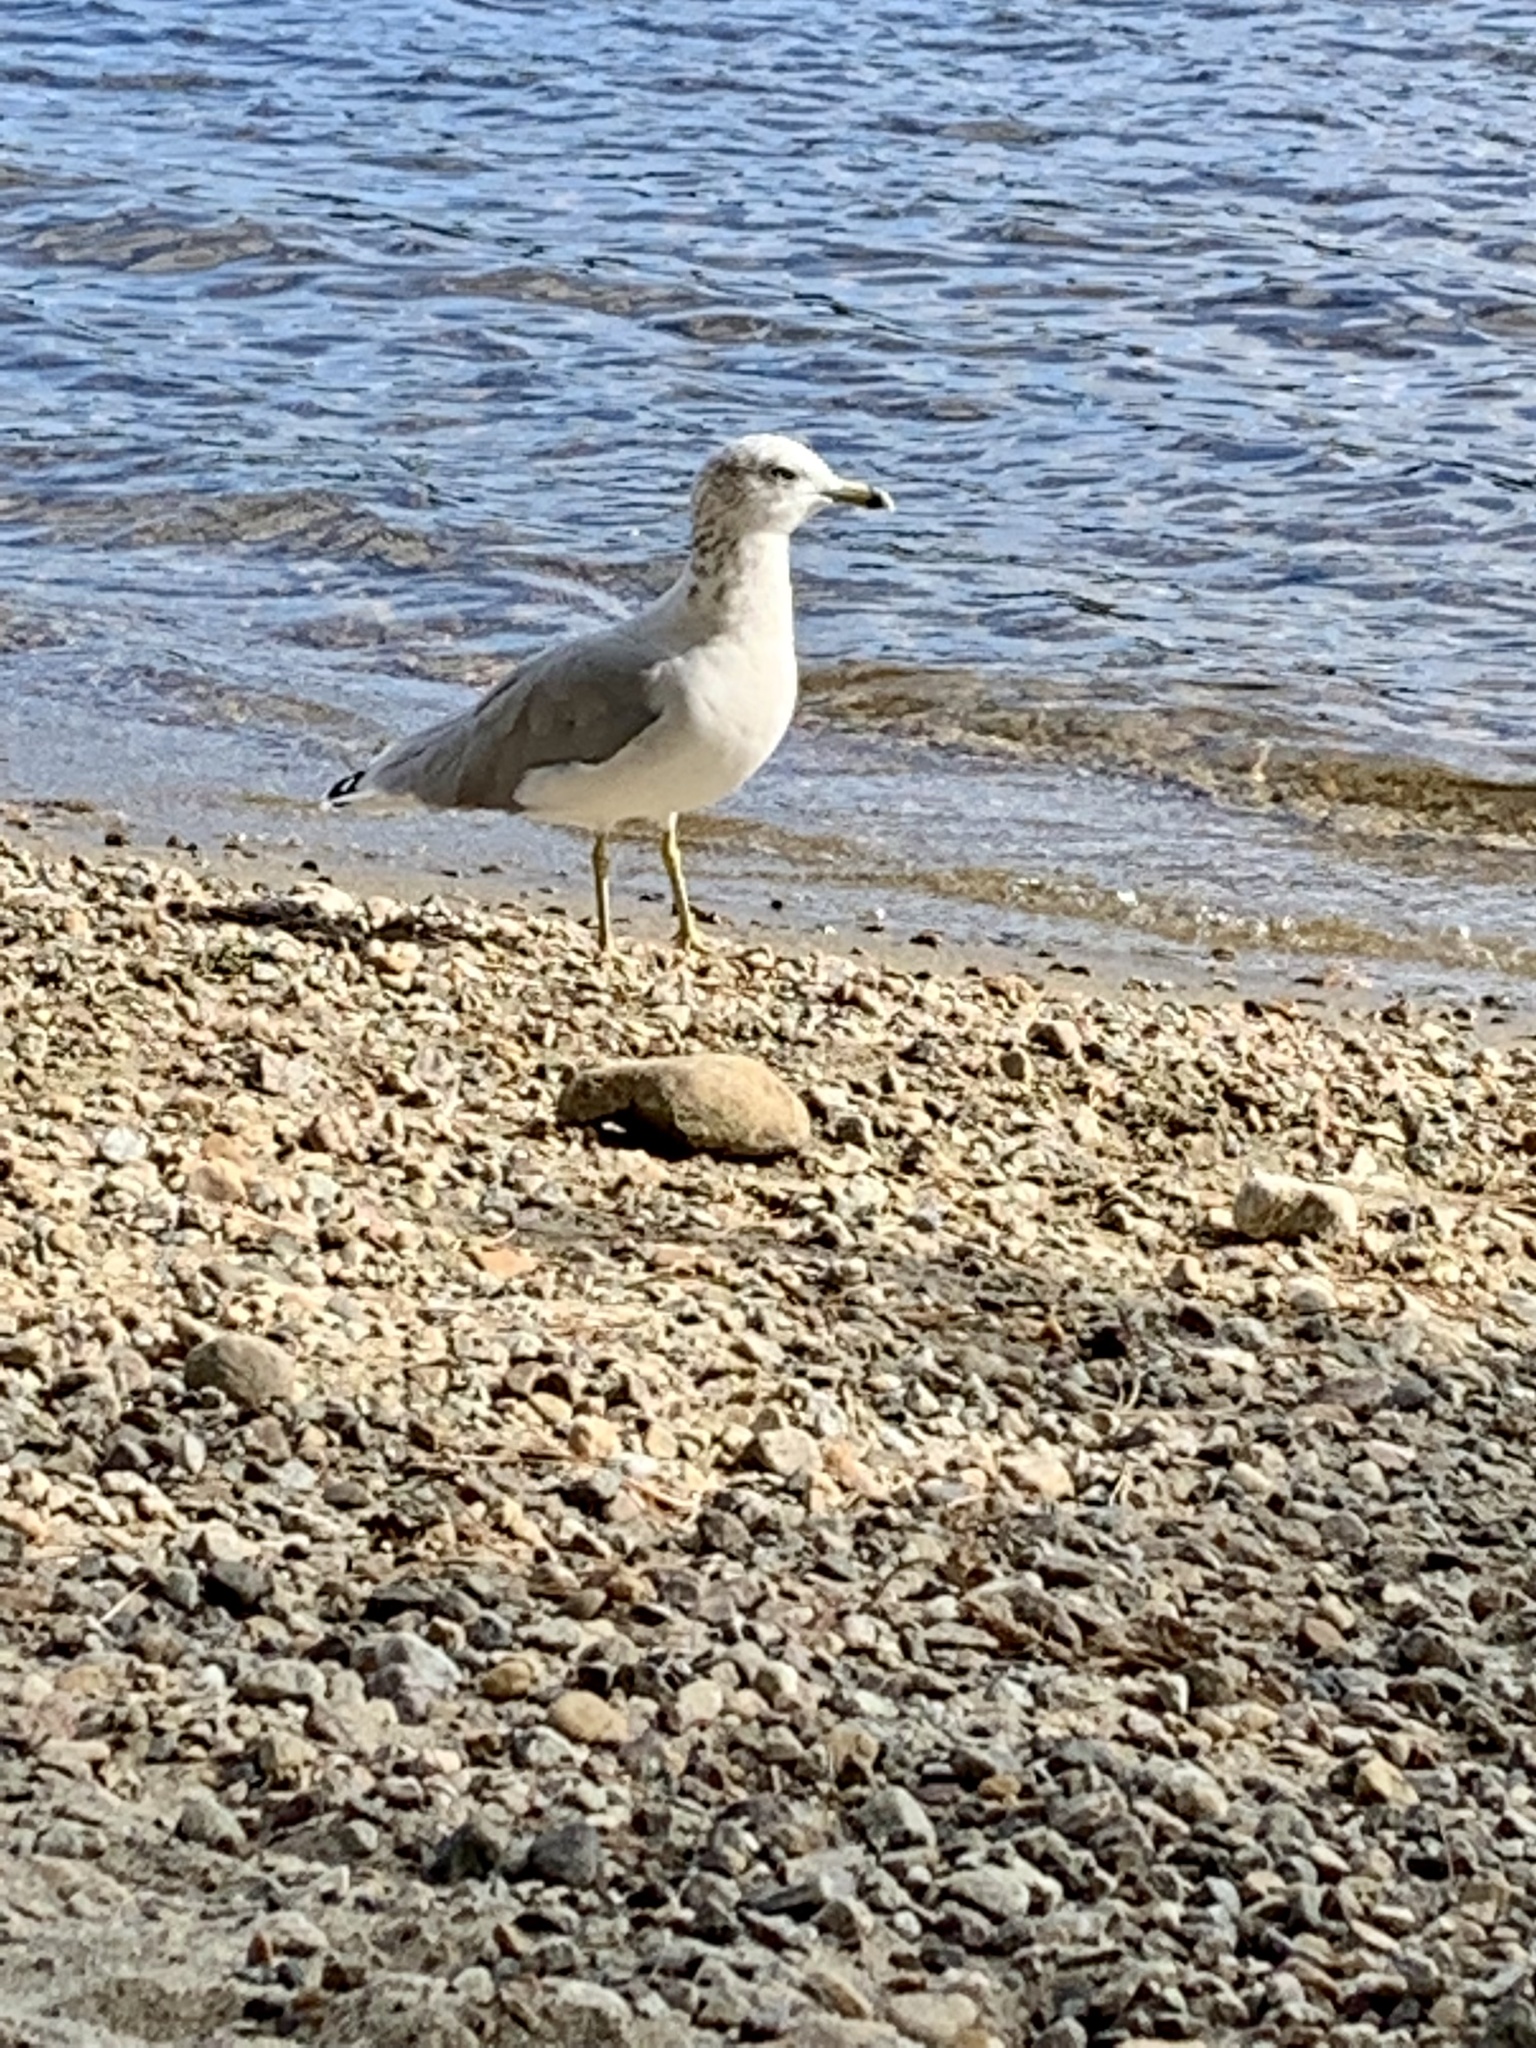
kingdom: Animalia
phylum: Chordata
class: Aves
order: Charadriiformes
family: Laridae
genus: Larus
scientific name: Larus delawarensis
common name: Ring-billed gull
